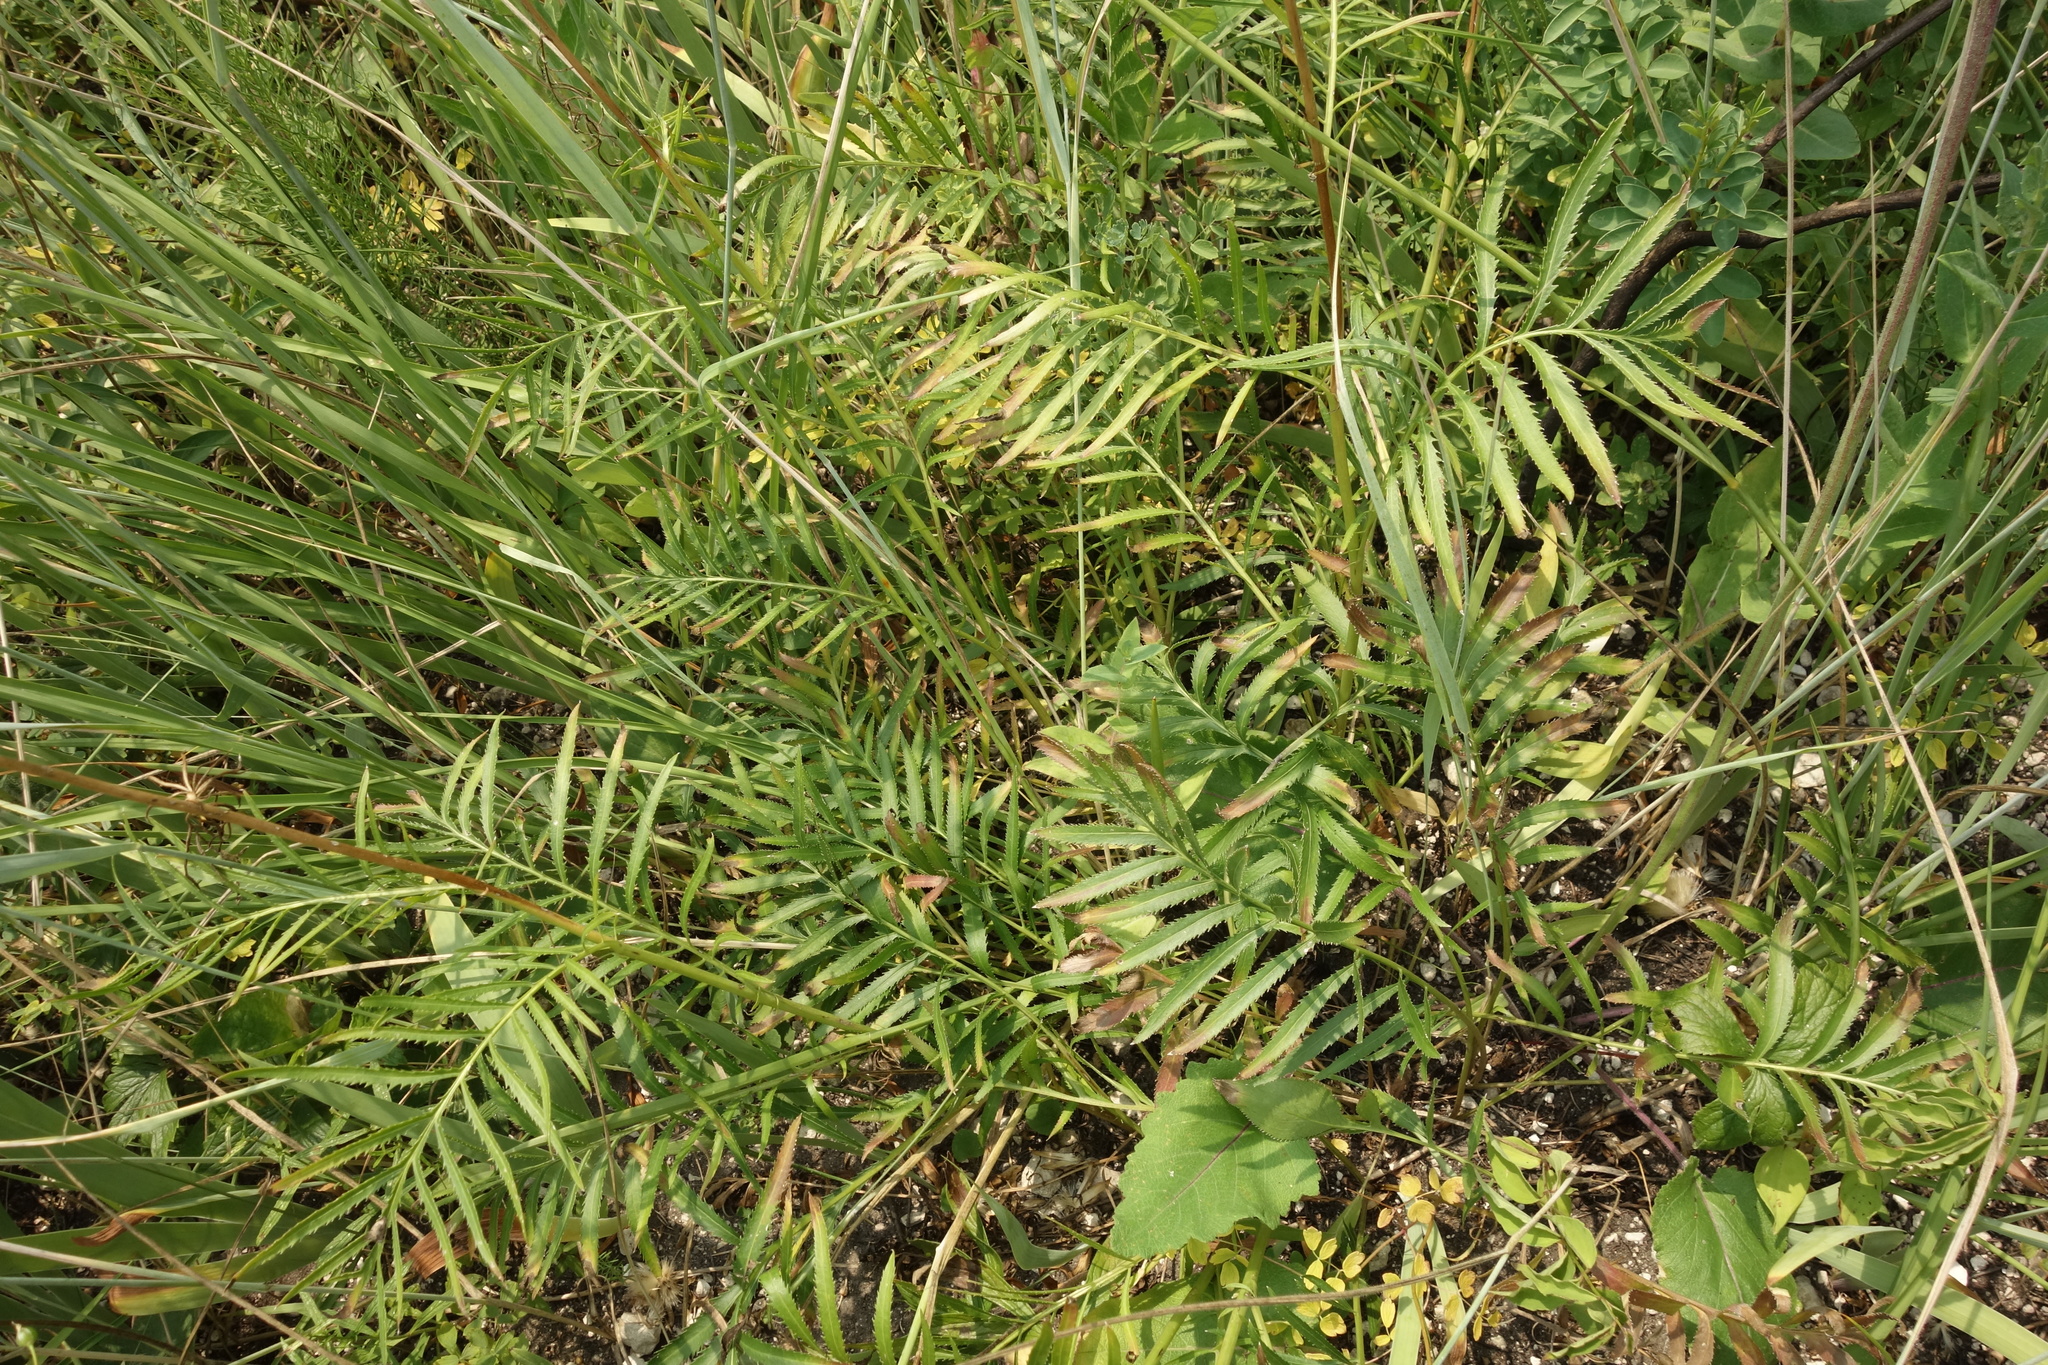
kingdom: Plantae
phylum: Tracheophyta
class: Magnoliopsida
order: Asterales
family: Asteraceae
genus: Rhaponticoides
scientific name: Rhaponticoides ruthenica
